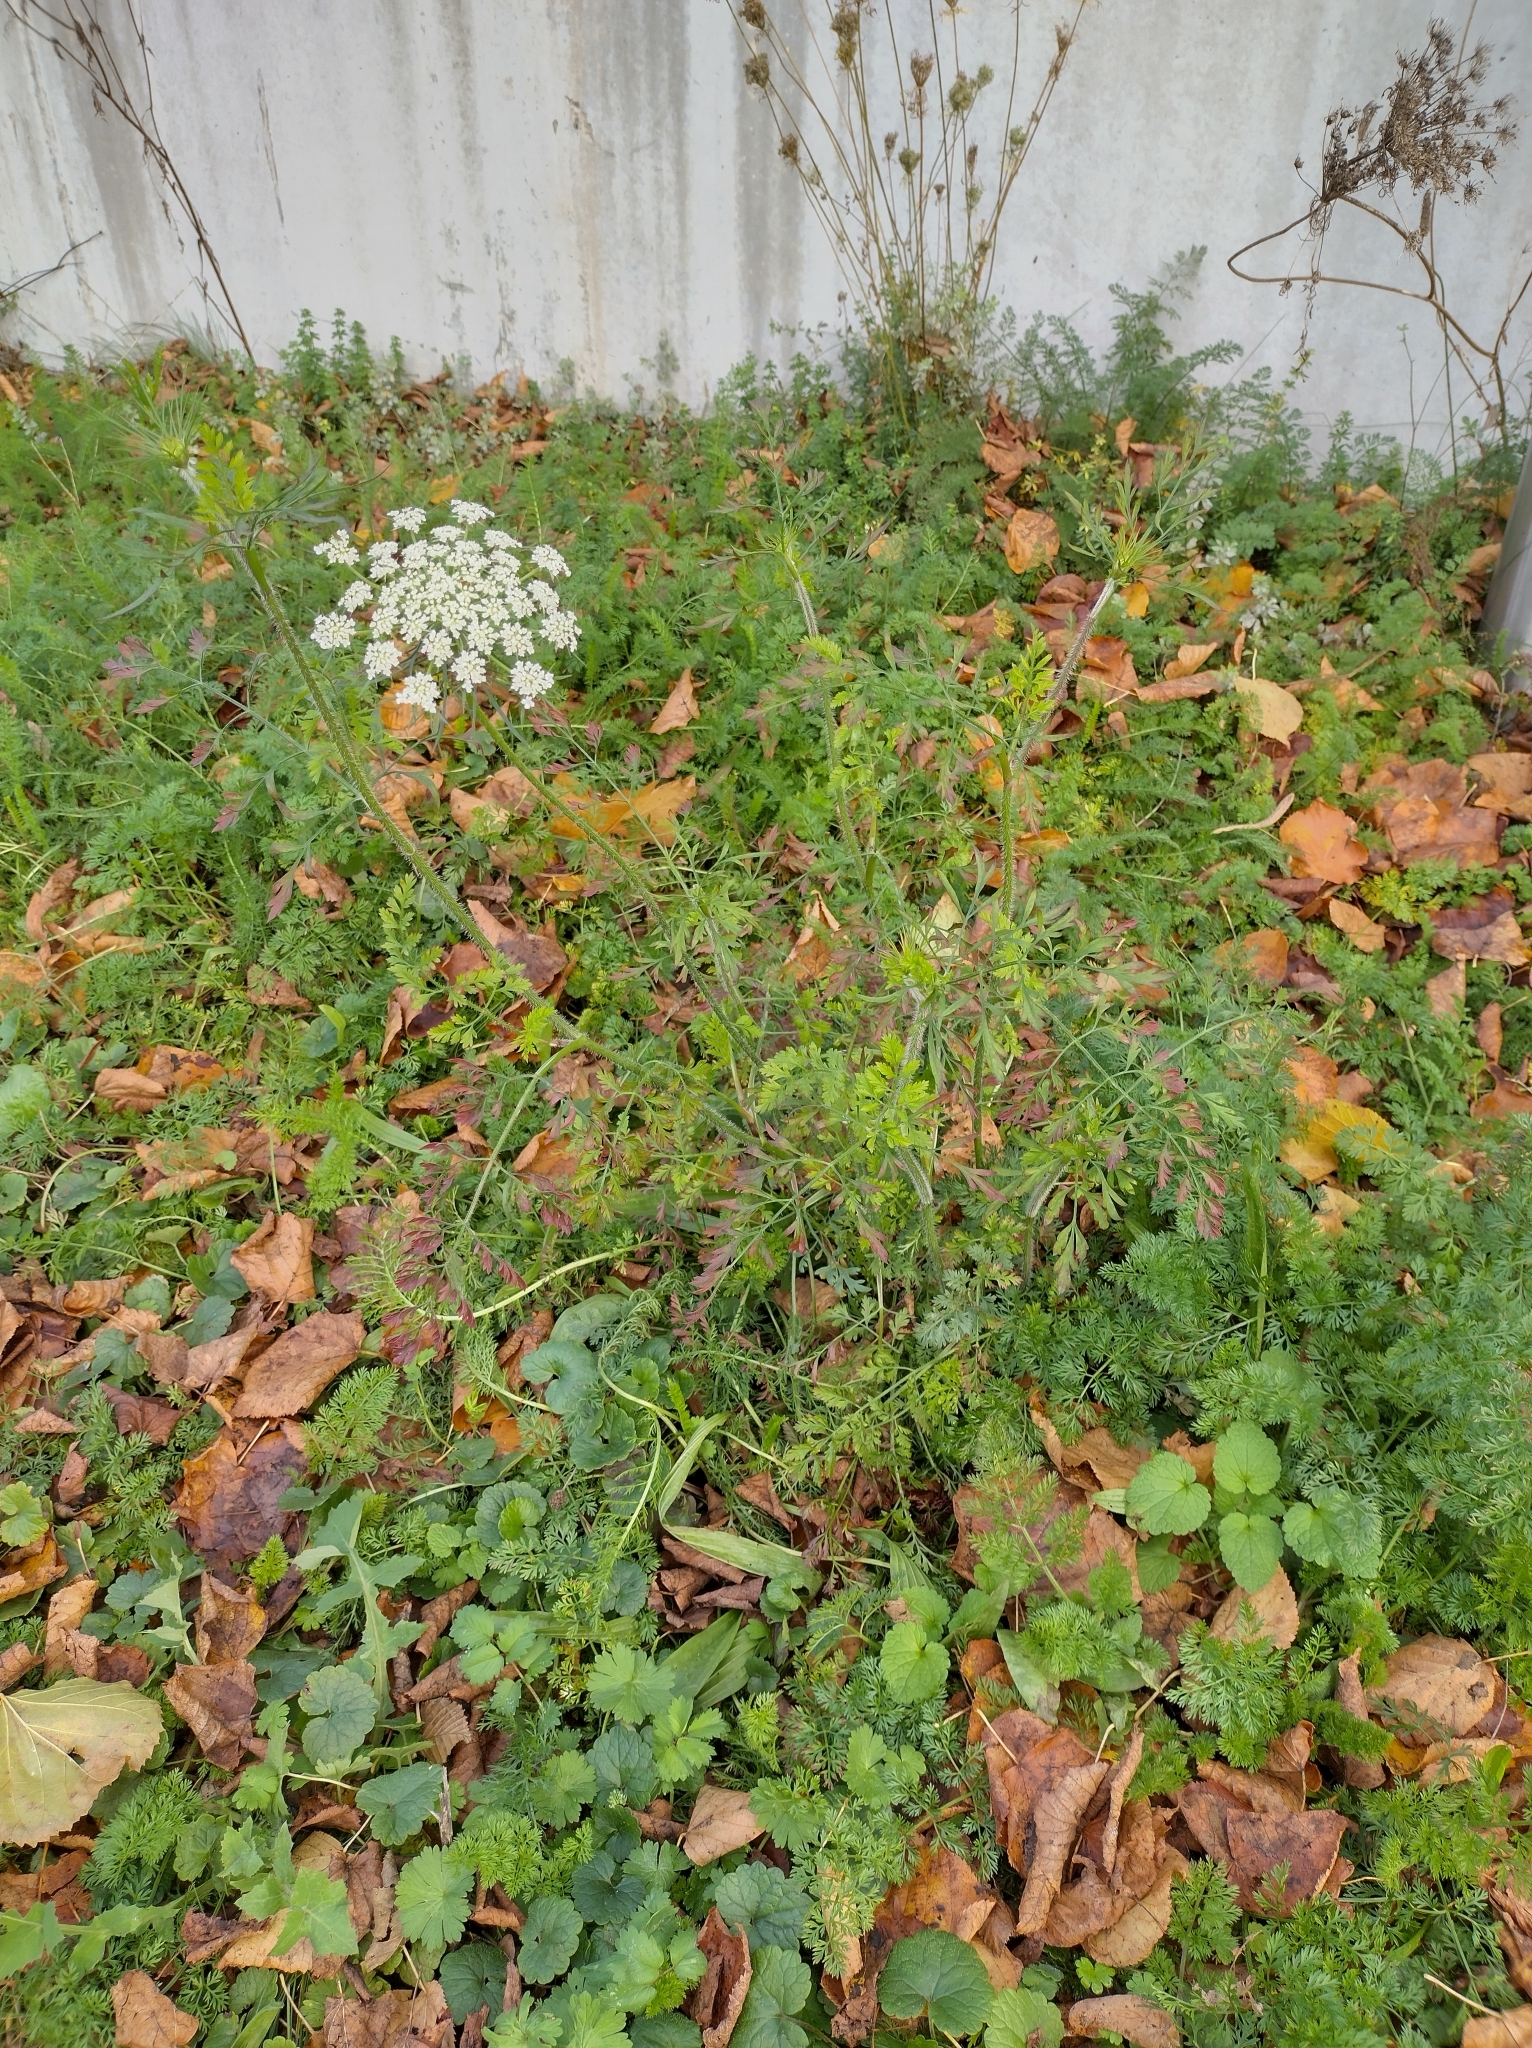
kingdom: Plantae
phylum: Tracheophyta
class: Magnoliopsida
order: Apiales
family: Apiaceae
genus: Daucus
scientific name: Daucus carota
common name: Wild carrot
